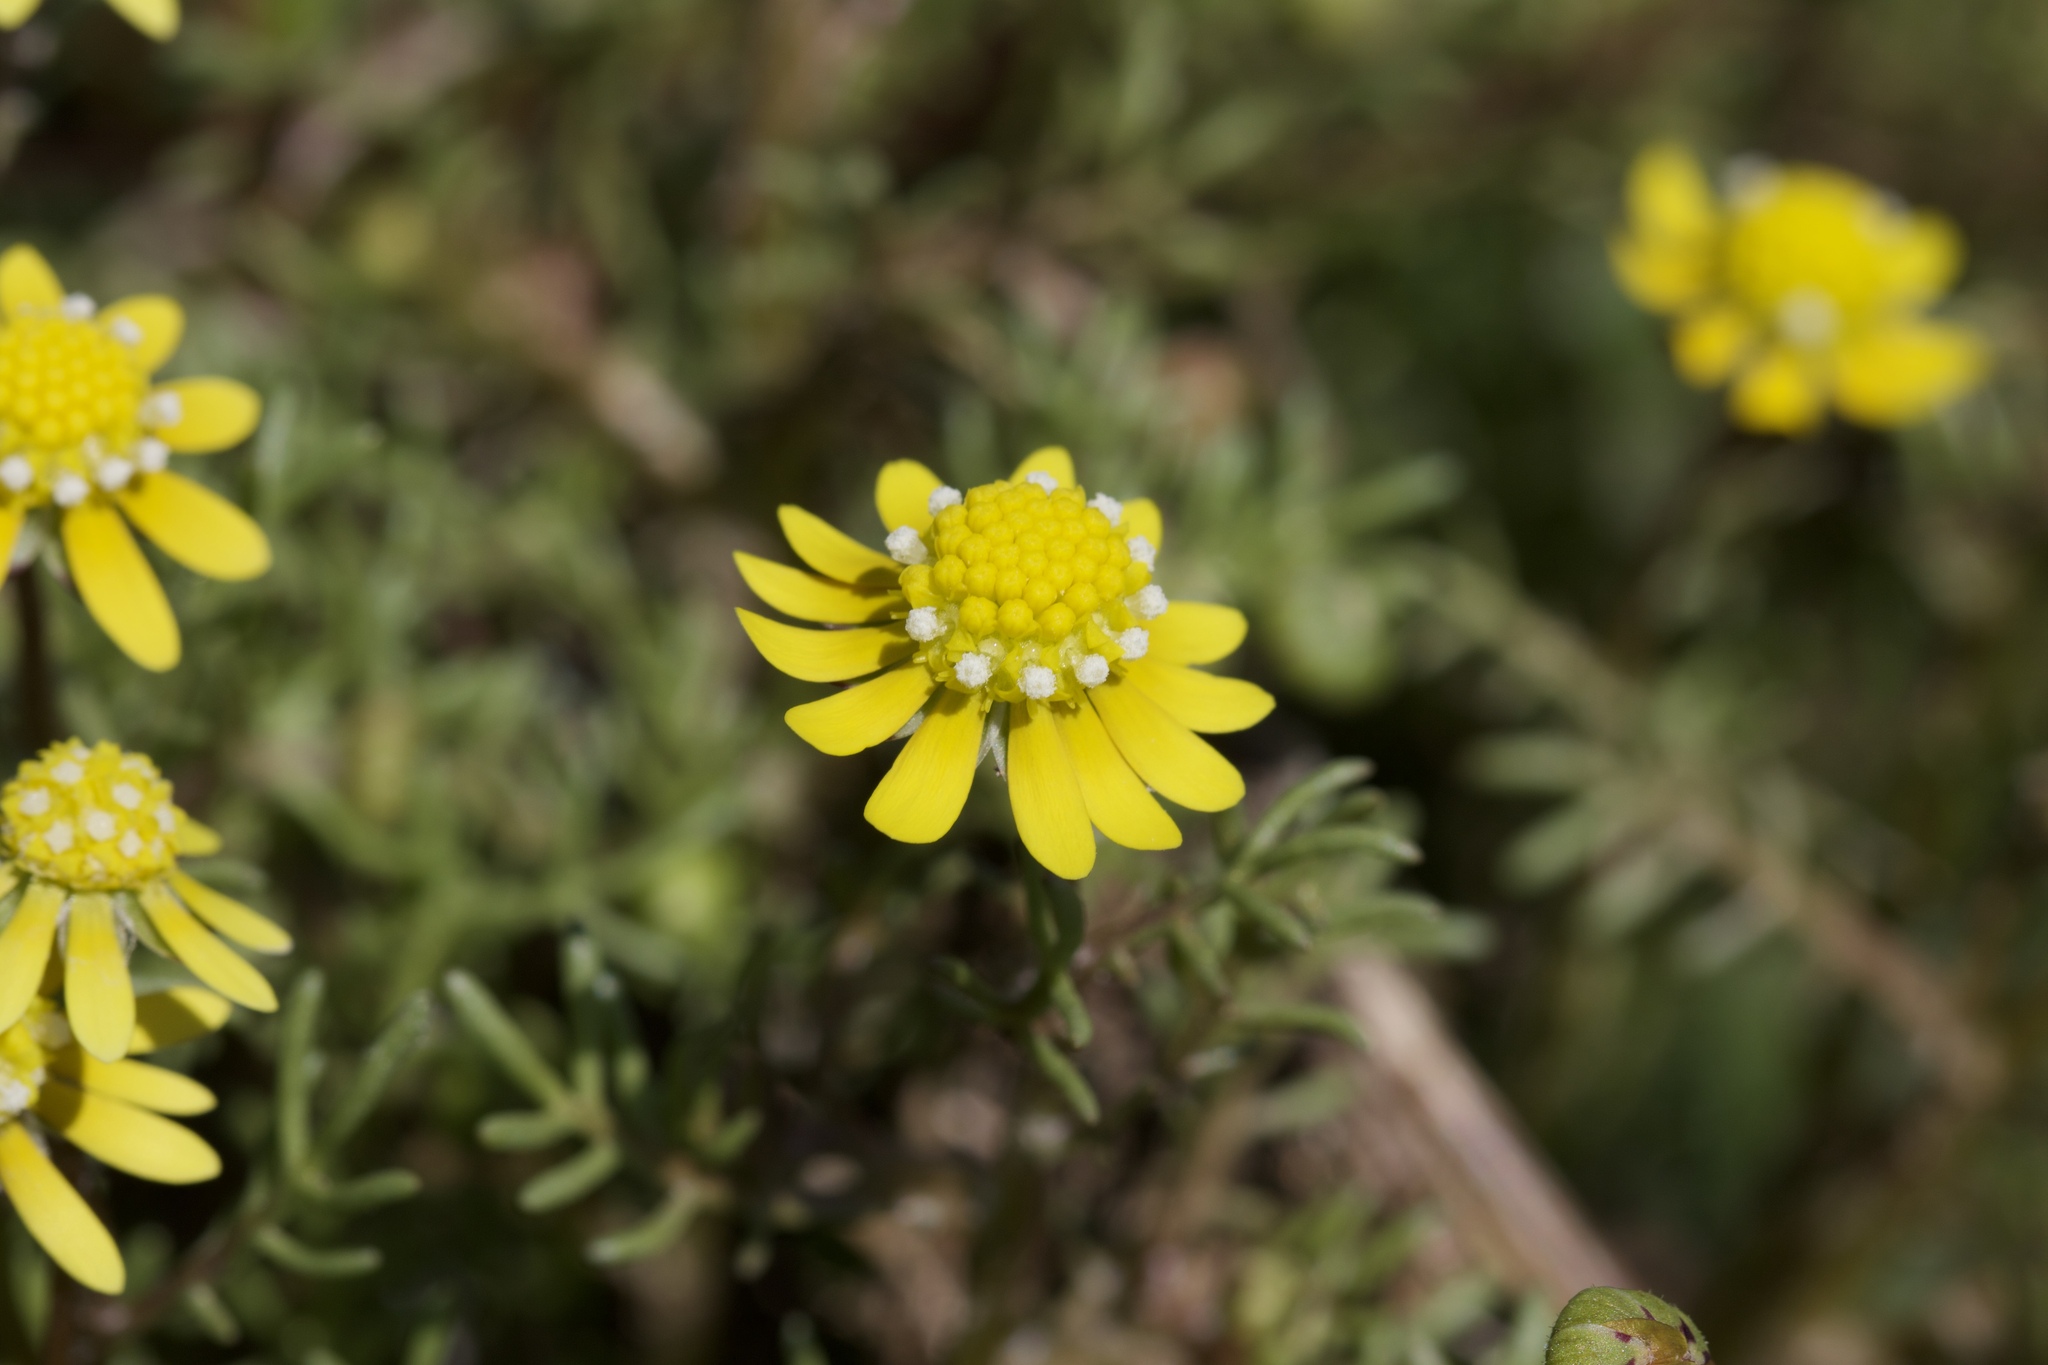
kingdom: Plantae
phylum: Tracheophyta
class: Magnoliopsida
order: Asterales
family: Asteraceae
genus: Blennosperma
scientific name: Blennosperma nanum
